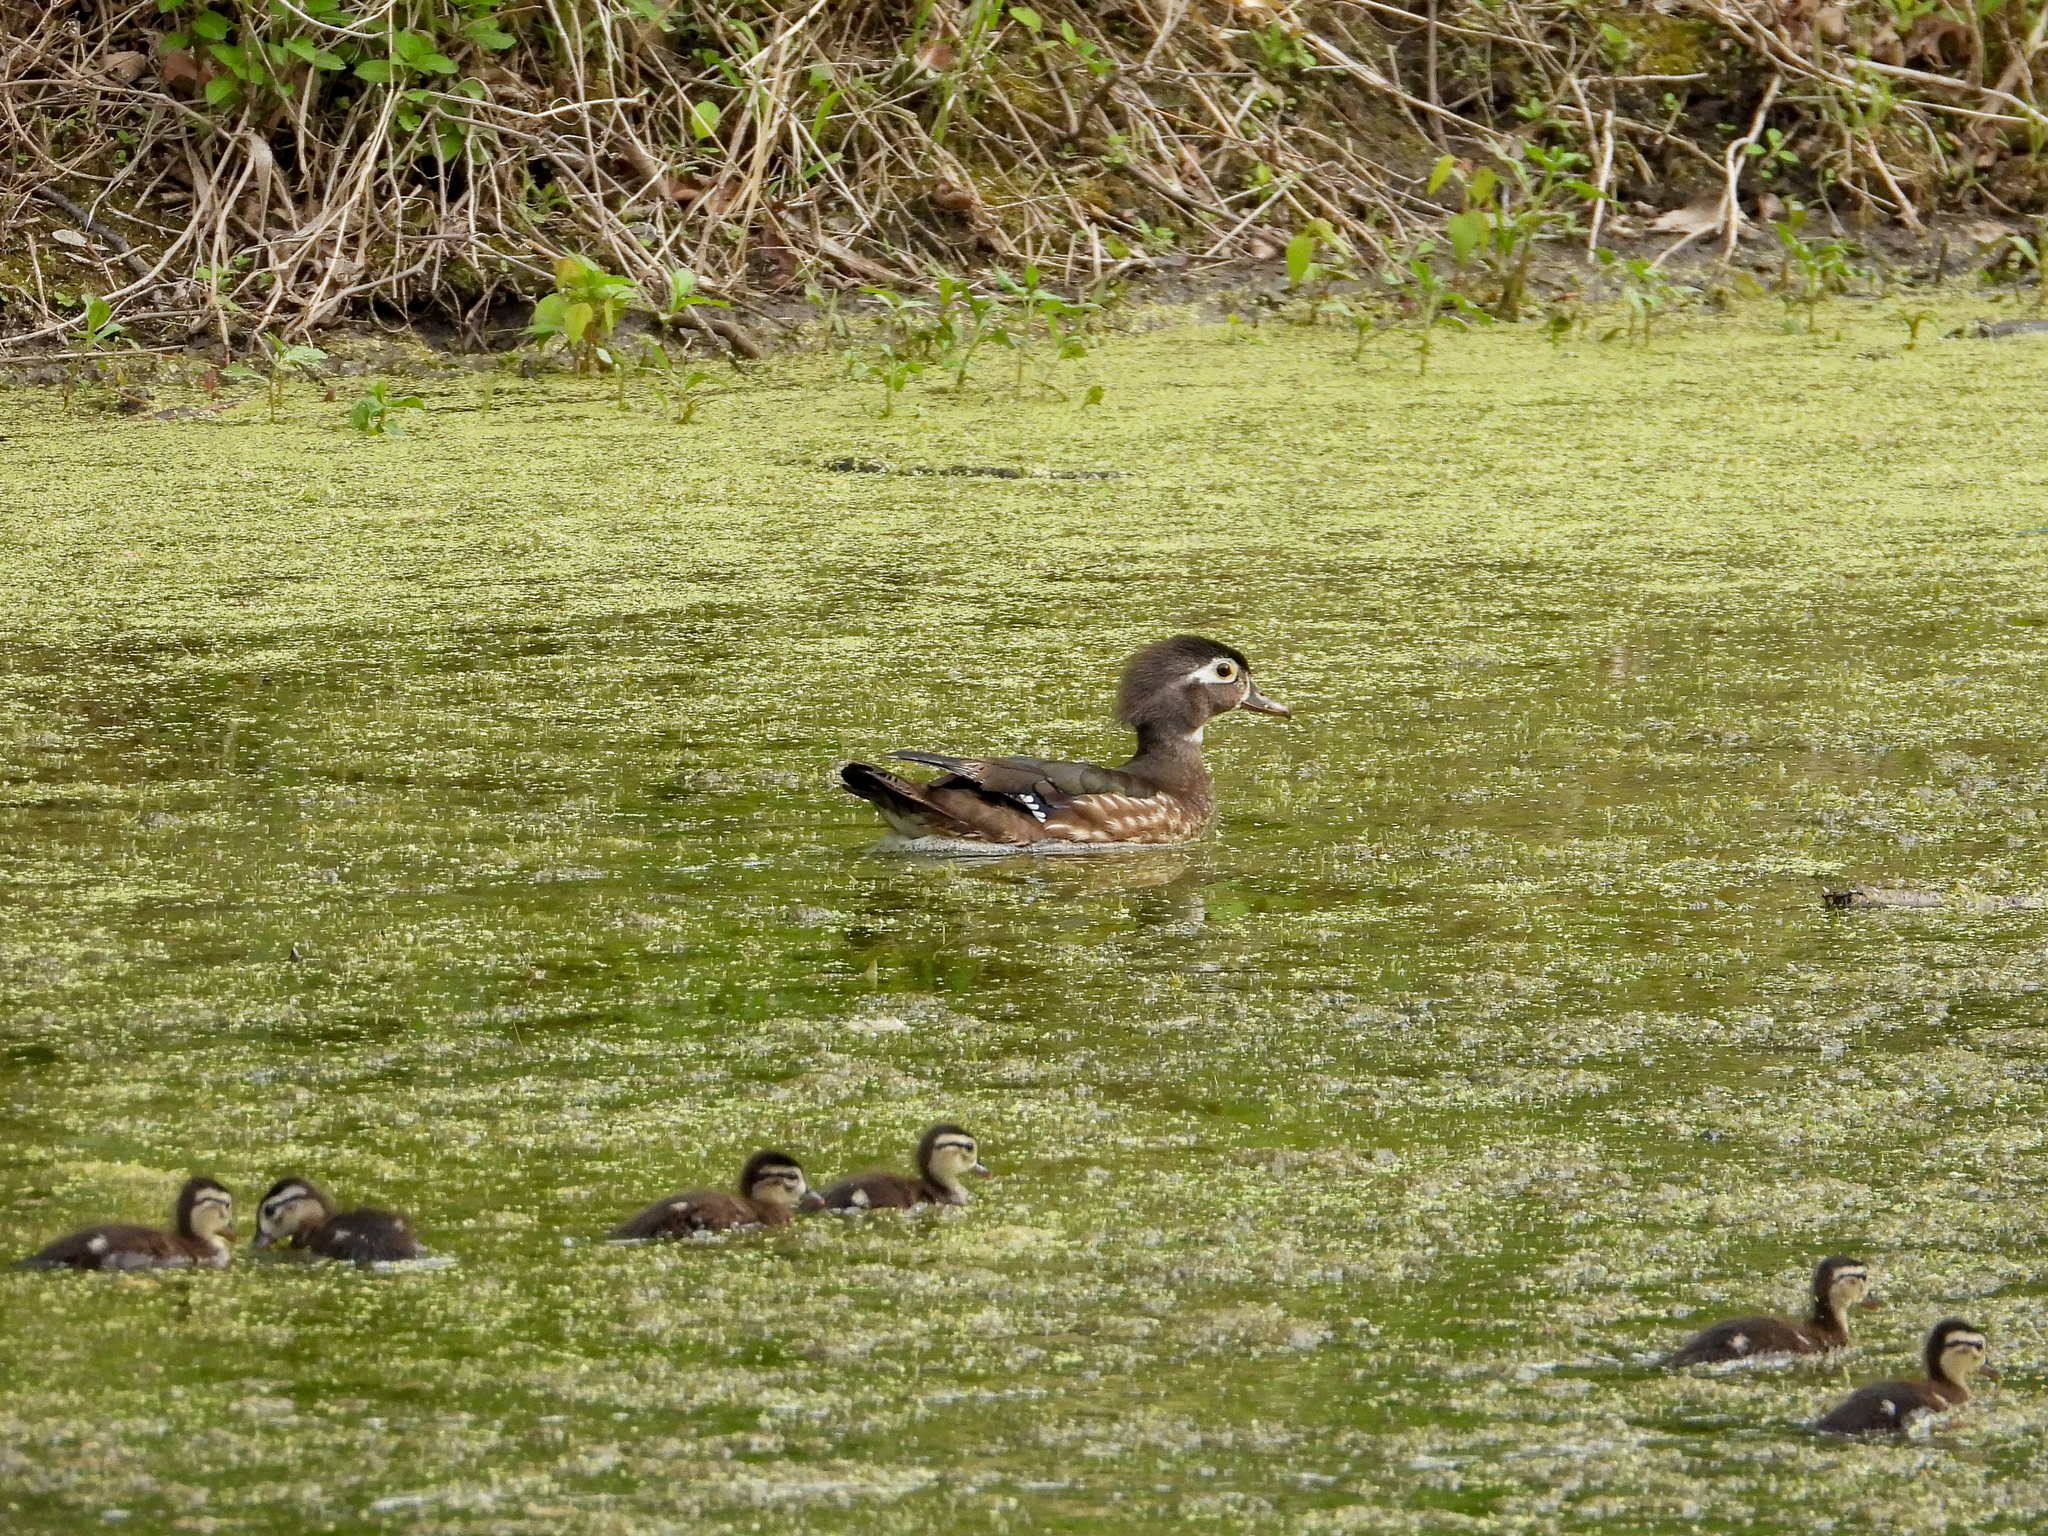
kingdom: Animalia
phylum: Chordata
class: Aves
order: Anseriformes
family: Anatidae
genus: Aix
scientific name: Aix sponsa
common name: Wood duck
